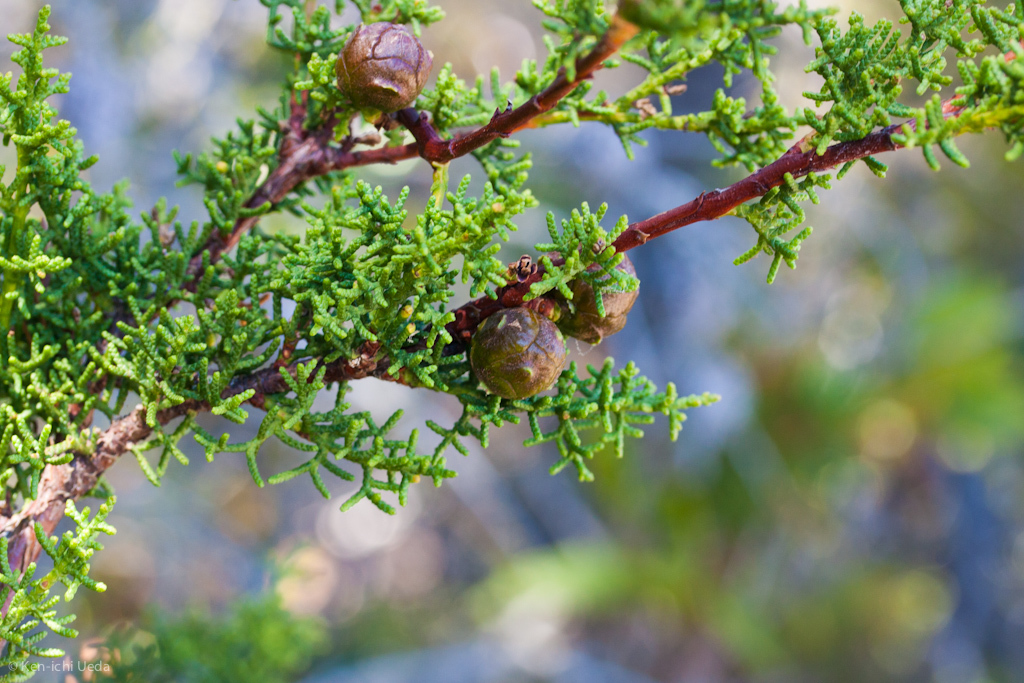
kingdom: Plantae
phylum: Tracheophyta
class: Pinopsida
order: Pinales
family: Cupressaceae
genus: Cupressus
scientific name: Cupressus goveniana
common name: Gowen cypress
